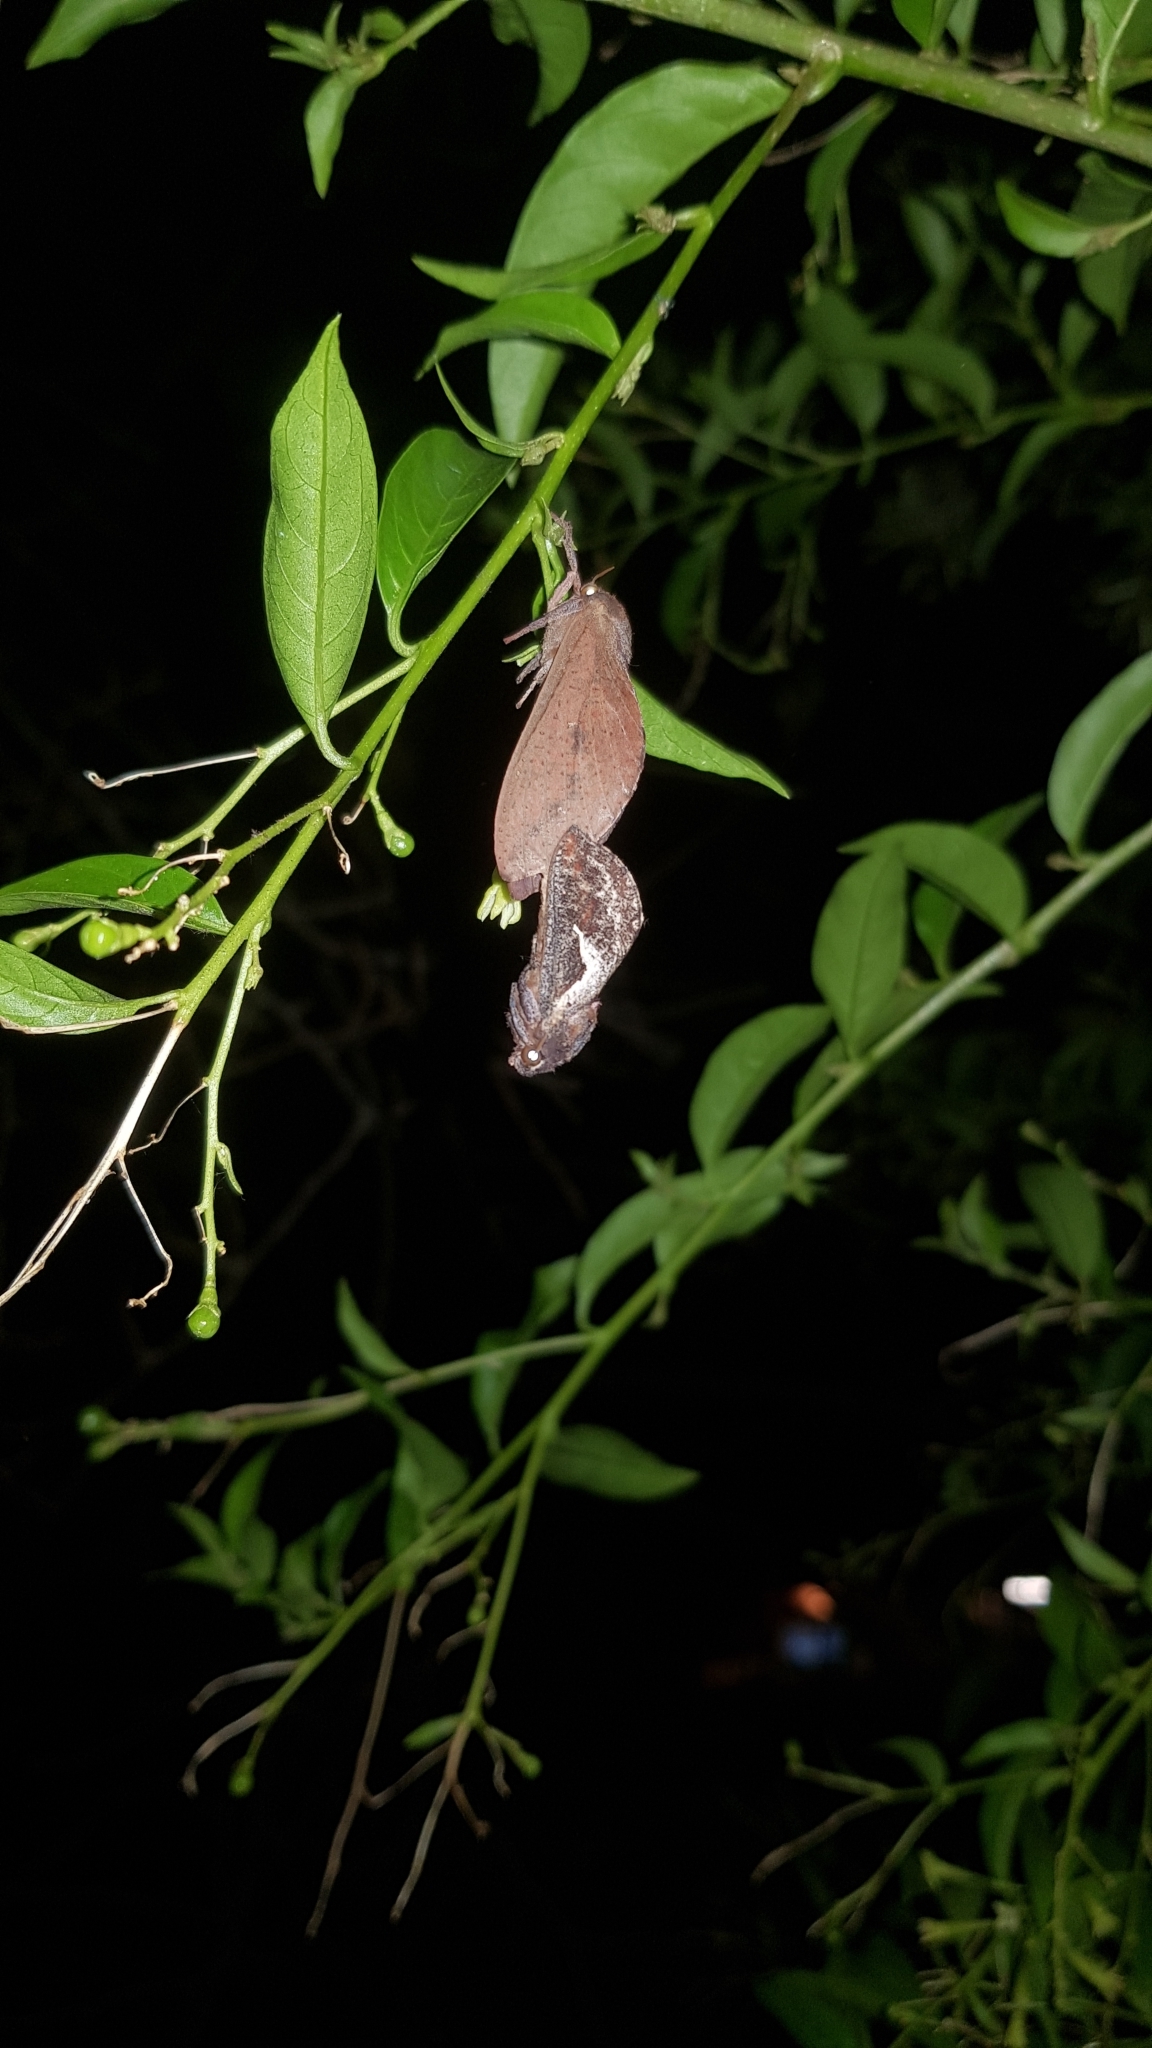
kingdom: Animalia
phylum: Arthropoda
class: Insecta
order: Lepidoptera
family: Hepialidae
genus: Elhamma
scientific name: Elhamma australasiae
